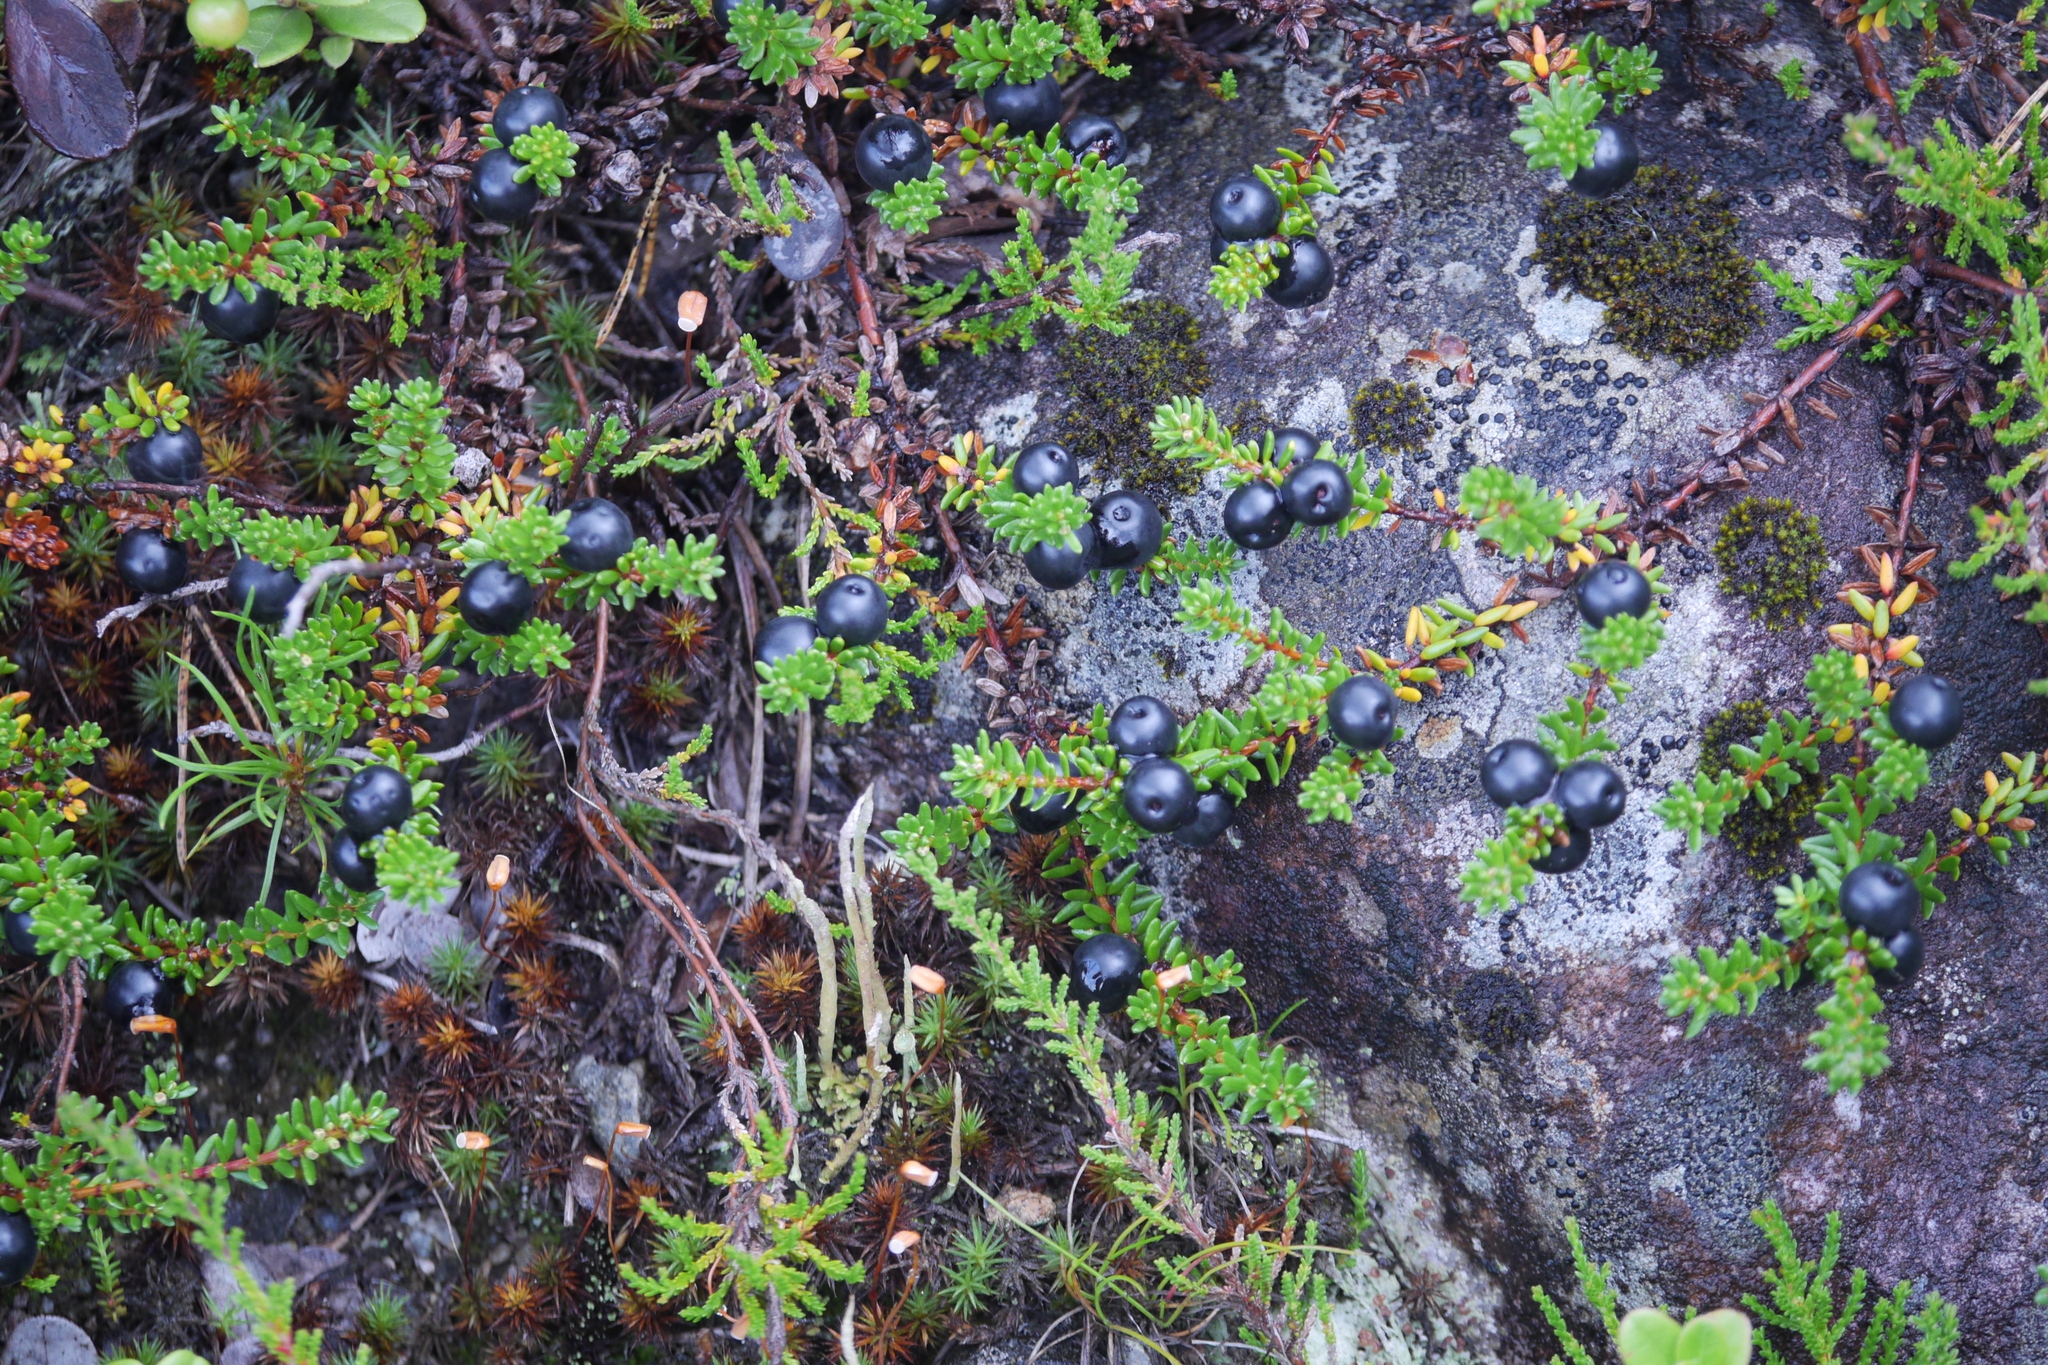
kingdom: Plantae
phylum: Tracheophyta
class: Magnoliopsida
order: Ericales
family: Ericaceae
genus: Empetrum
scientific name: Empetrum nigrum
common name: Black crowberry
